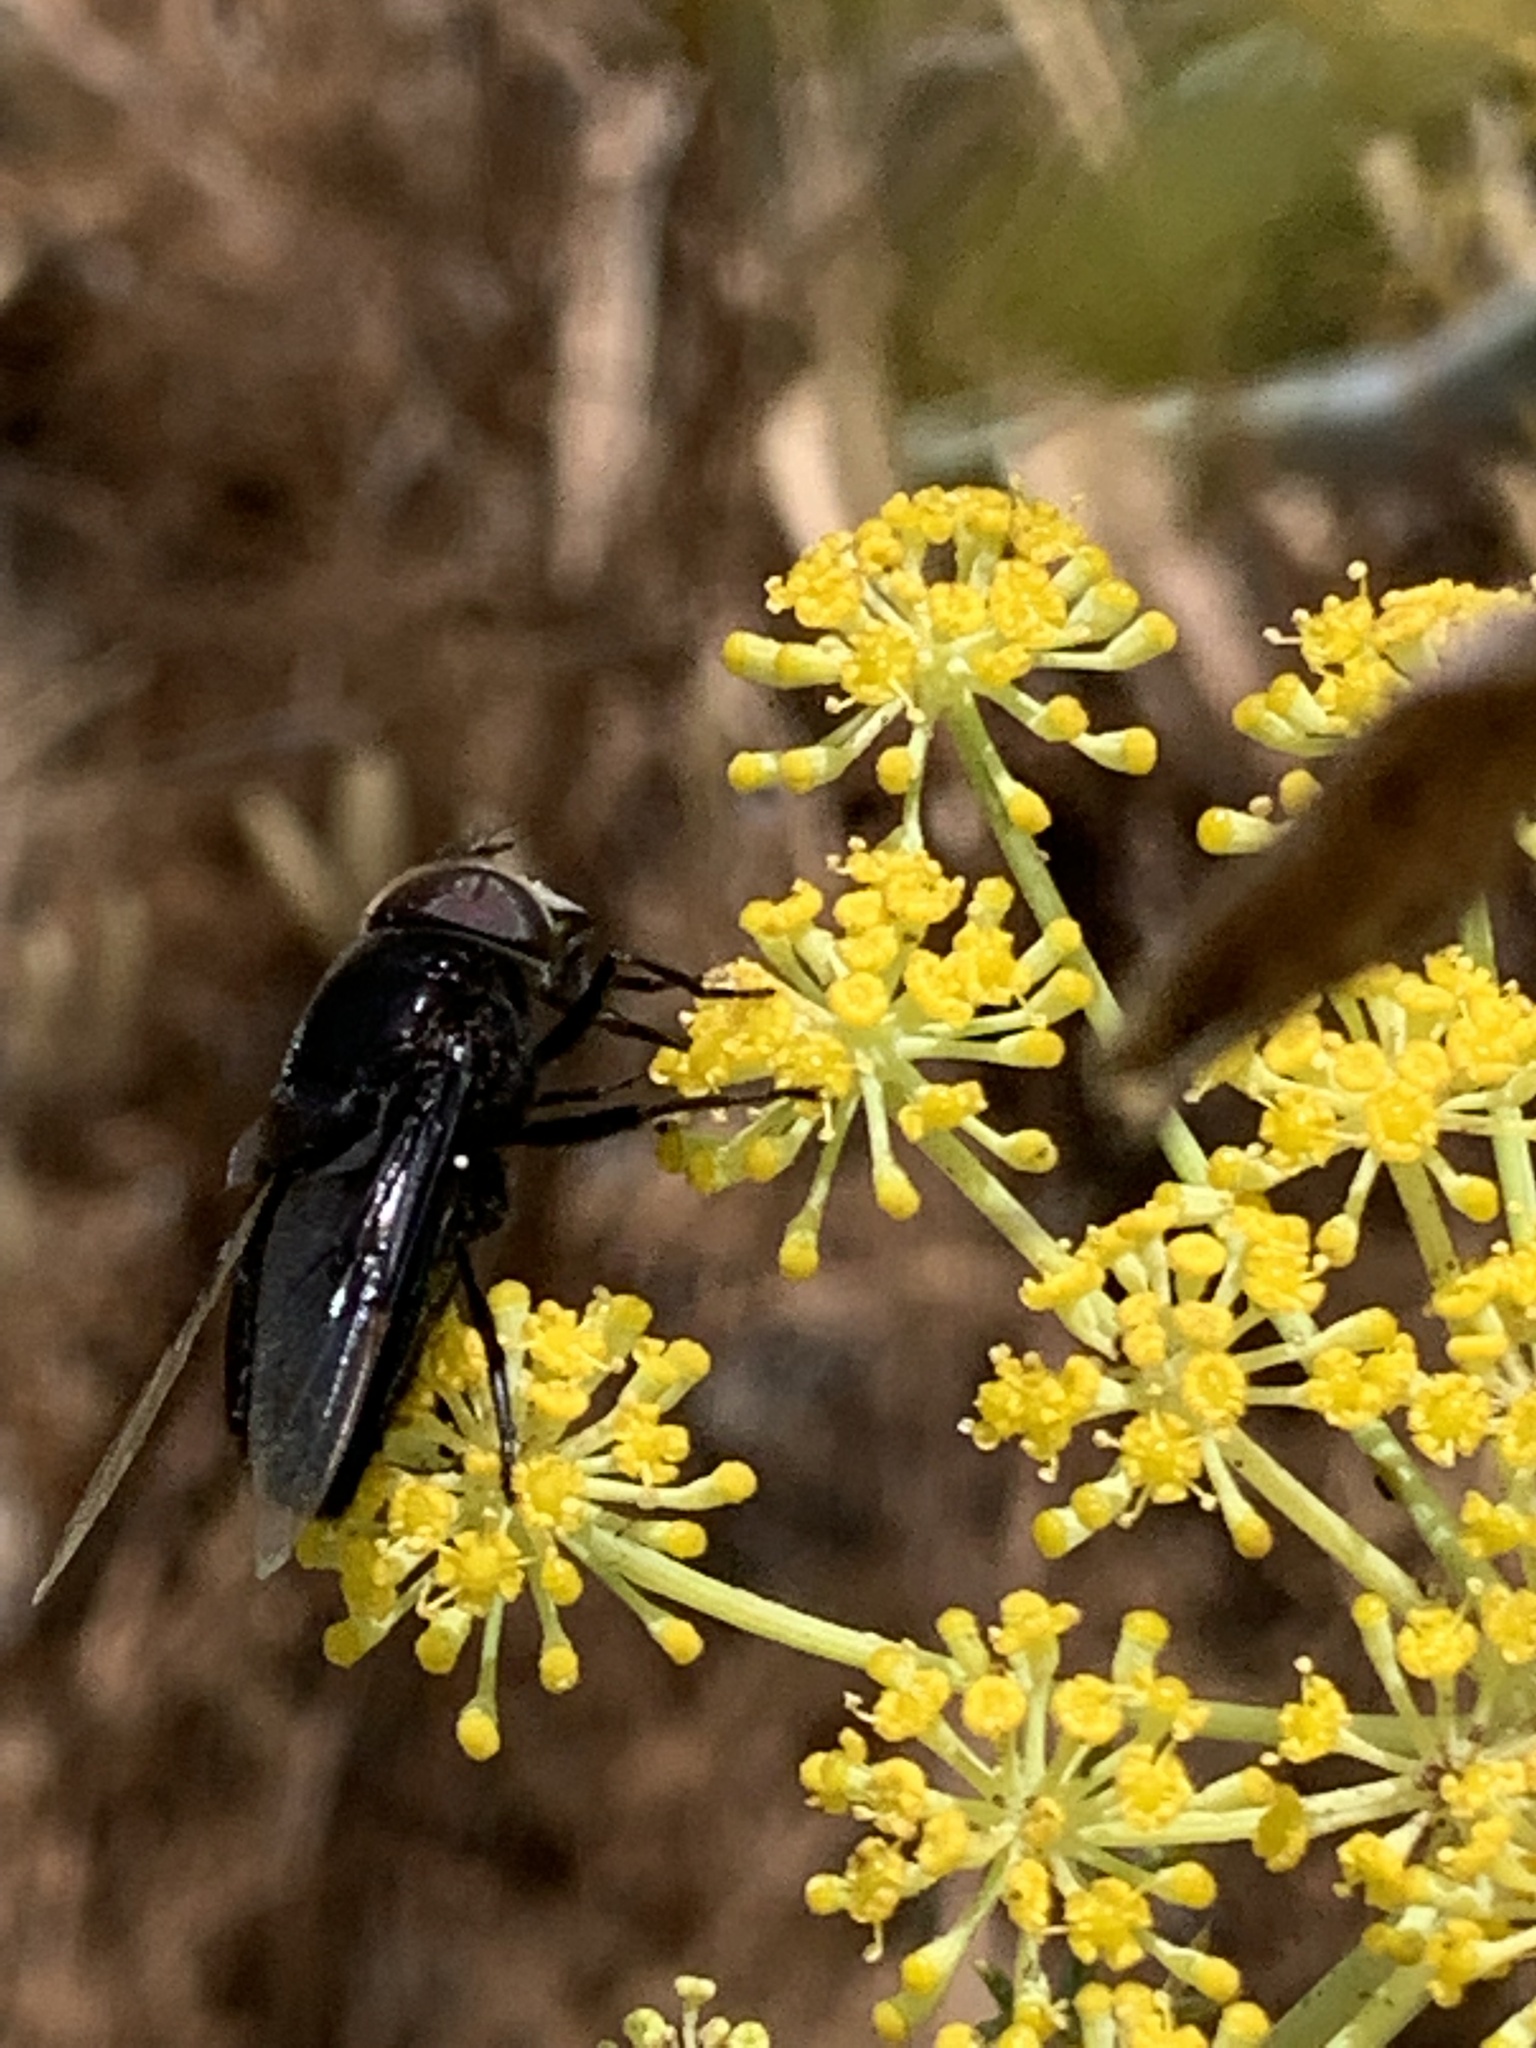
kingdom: Animalia
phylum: Arthropoda
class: Insecta
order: Diptera
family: Syrphidae
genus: Copestylum
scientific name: Copestylum
